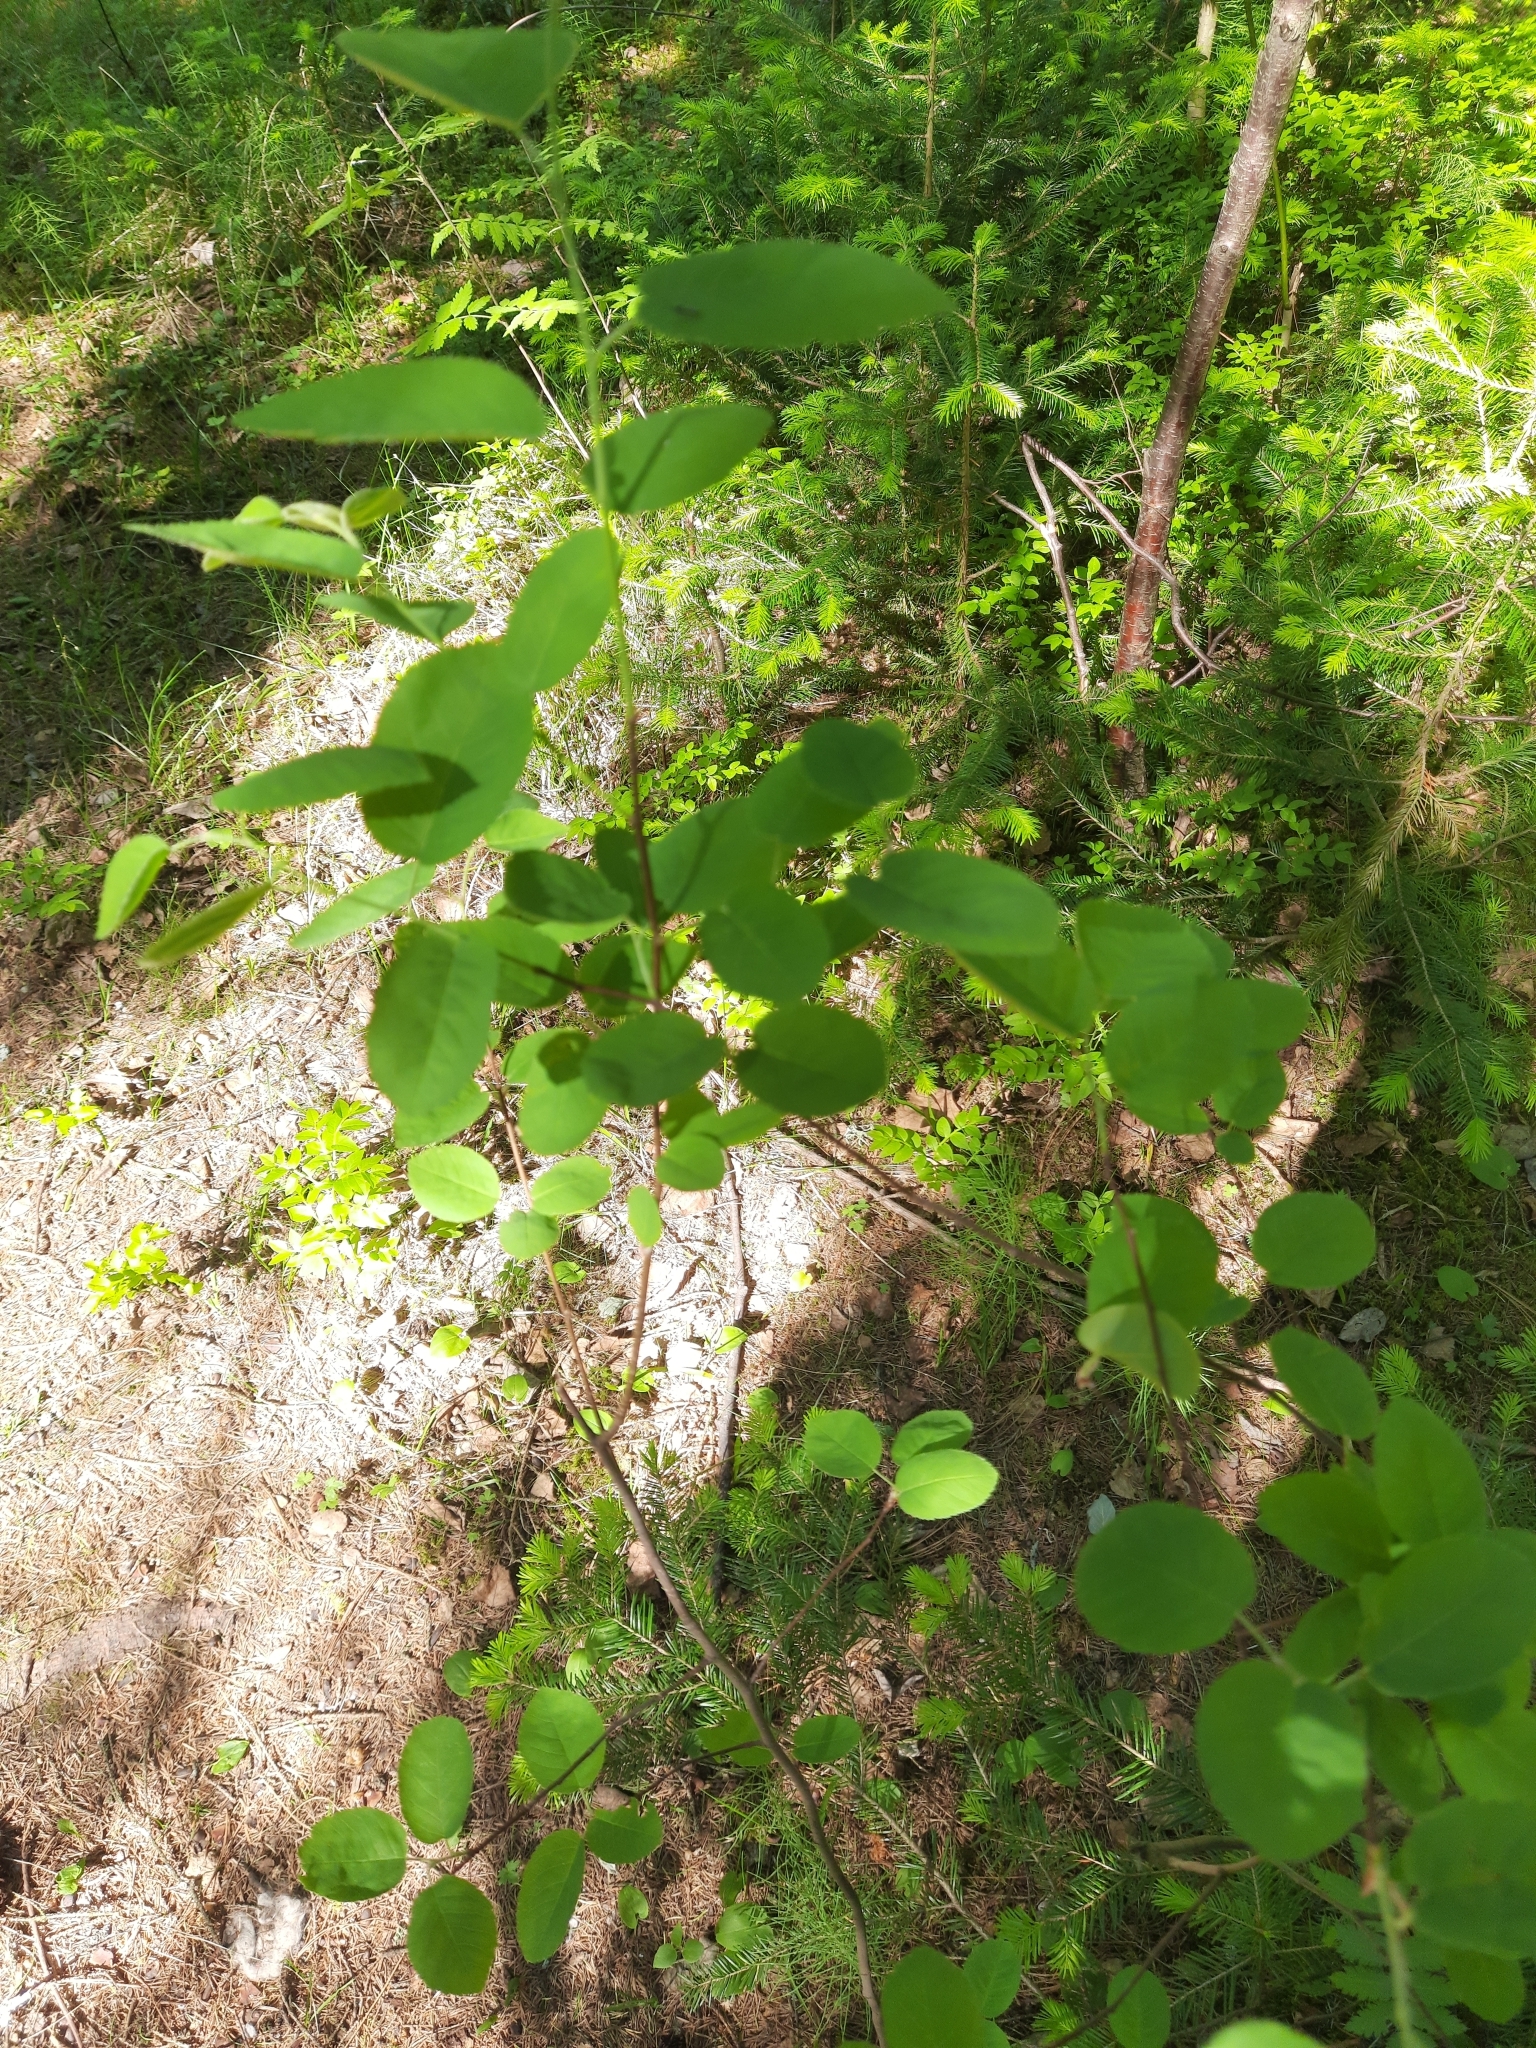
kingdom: Plantae
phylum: Tracheophyta
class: Magnoliopsida
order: Rosales
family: Rosaceae
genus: Amelanchier
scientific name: Amelanchier
